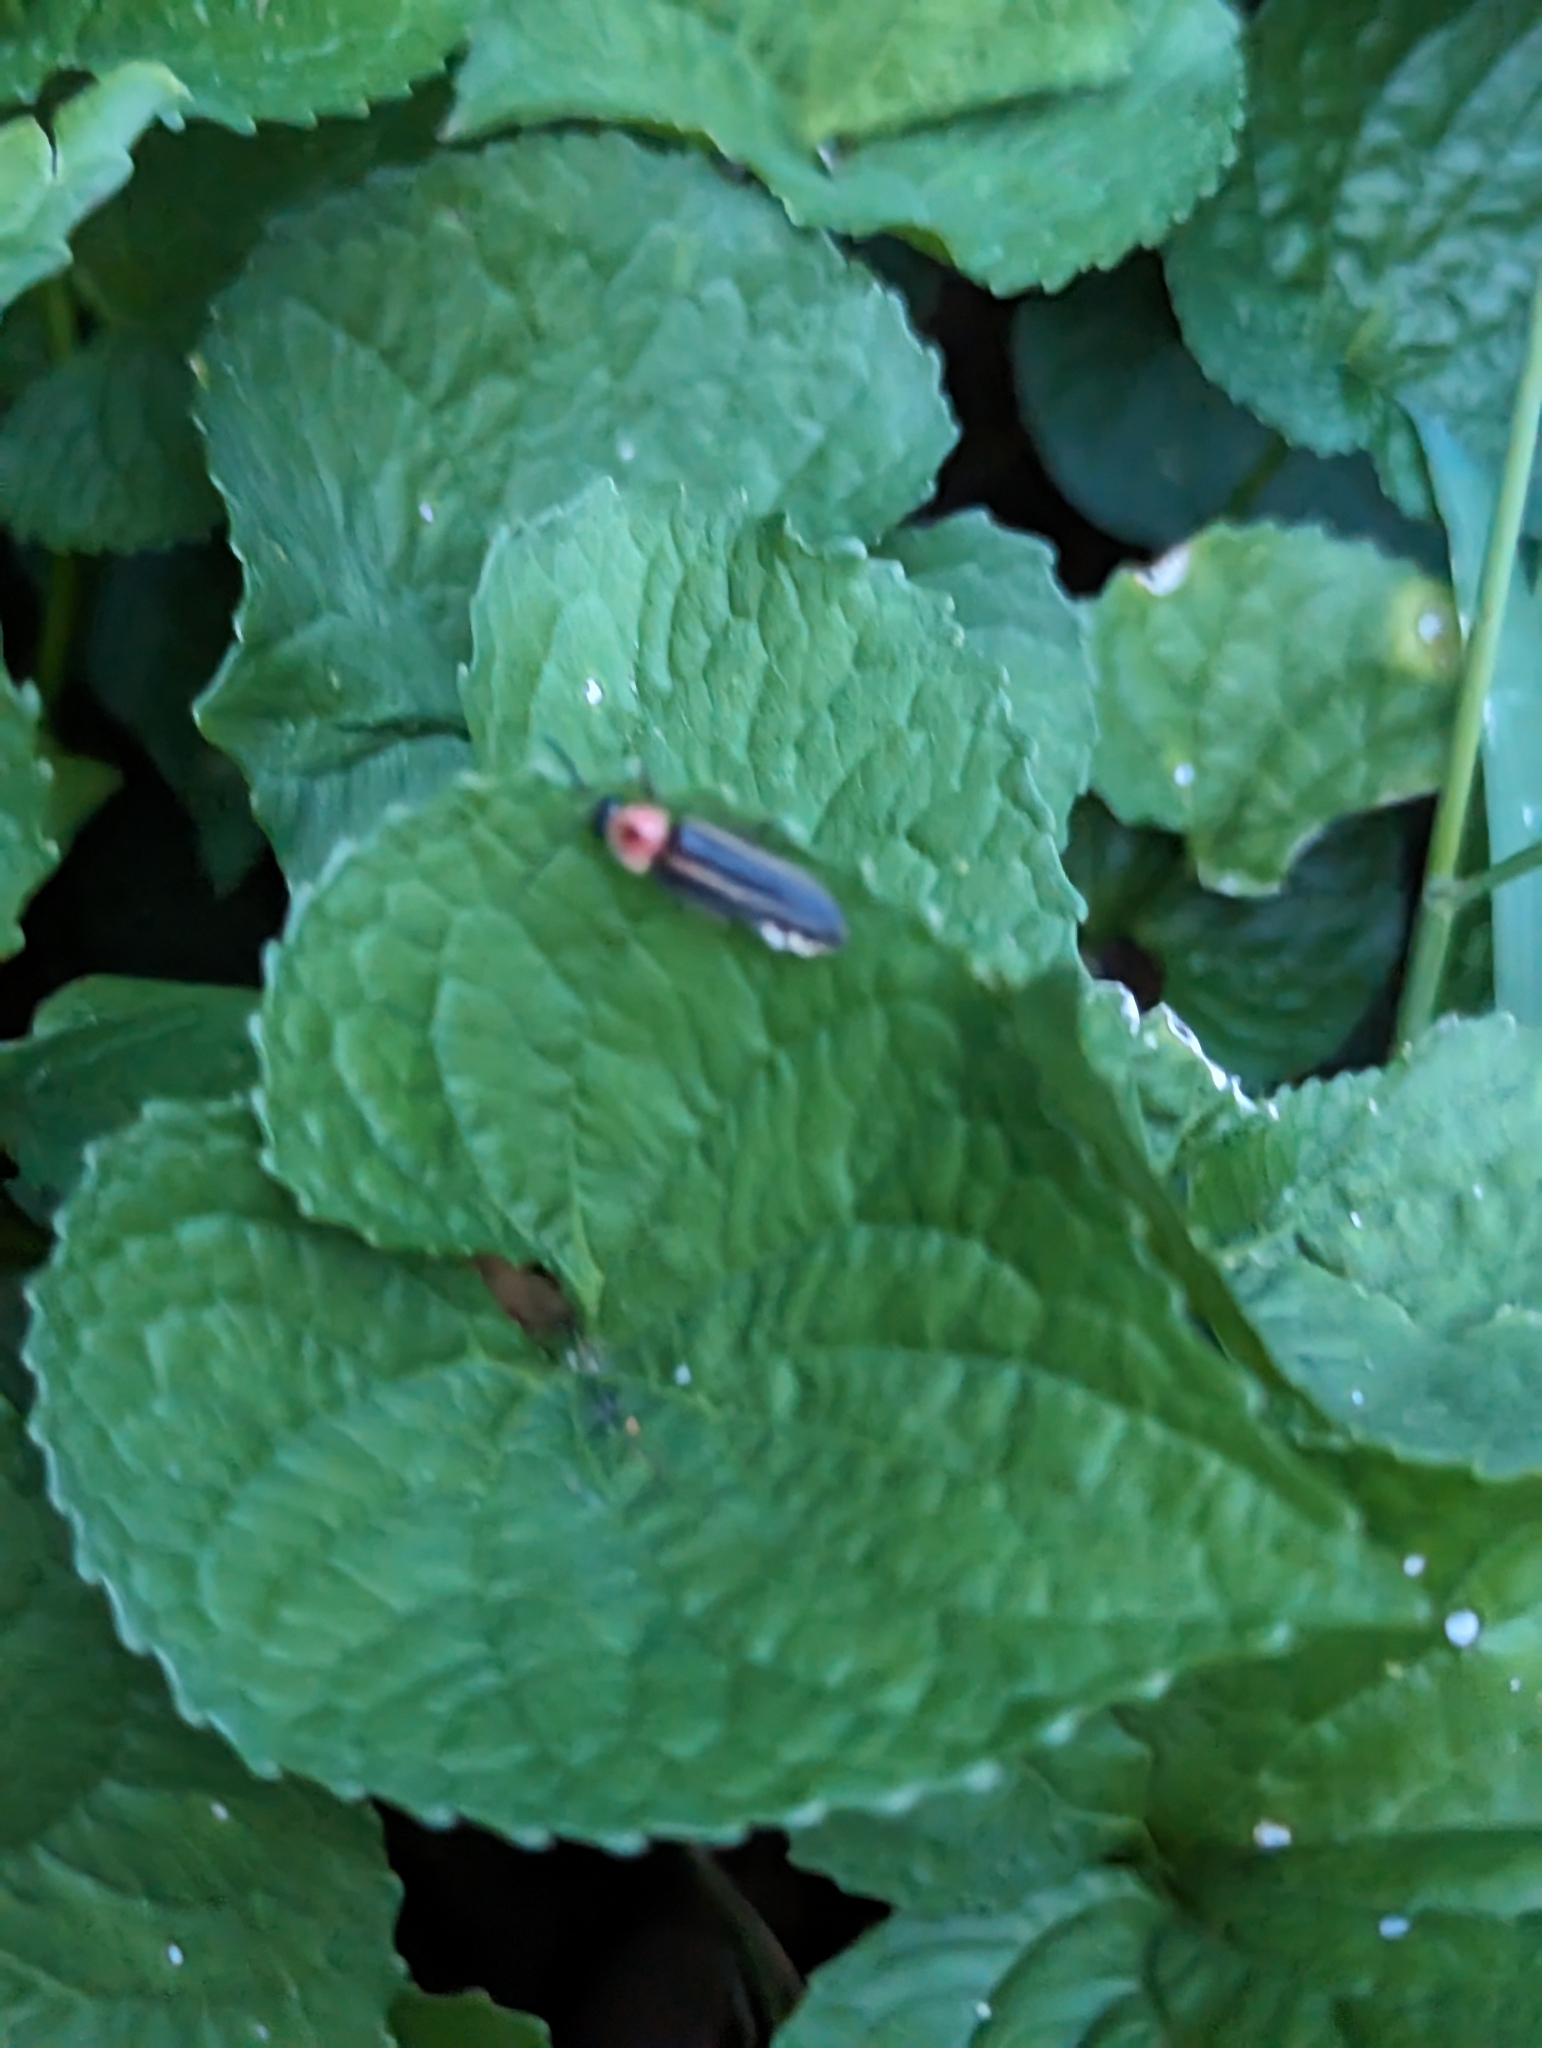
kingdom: Animalia
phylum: Arthropoda
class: Insecta
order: Coleoptera
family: Lampyridae
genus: Photinus
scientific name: Photinus pyralis
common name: Big dipper firefly
